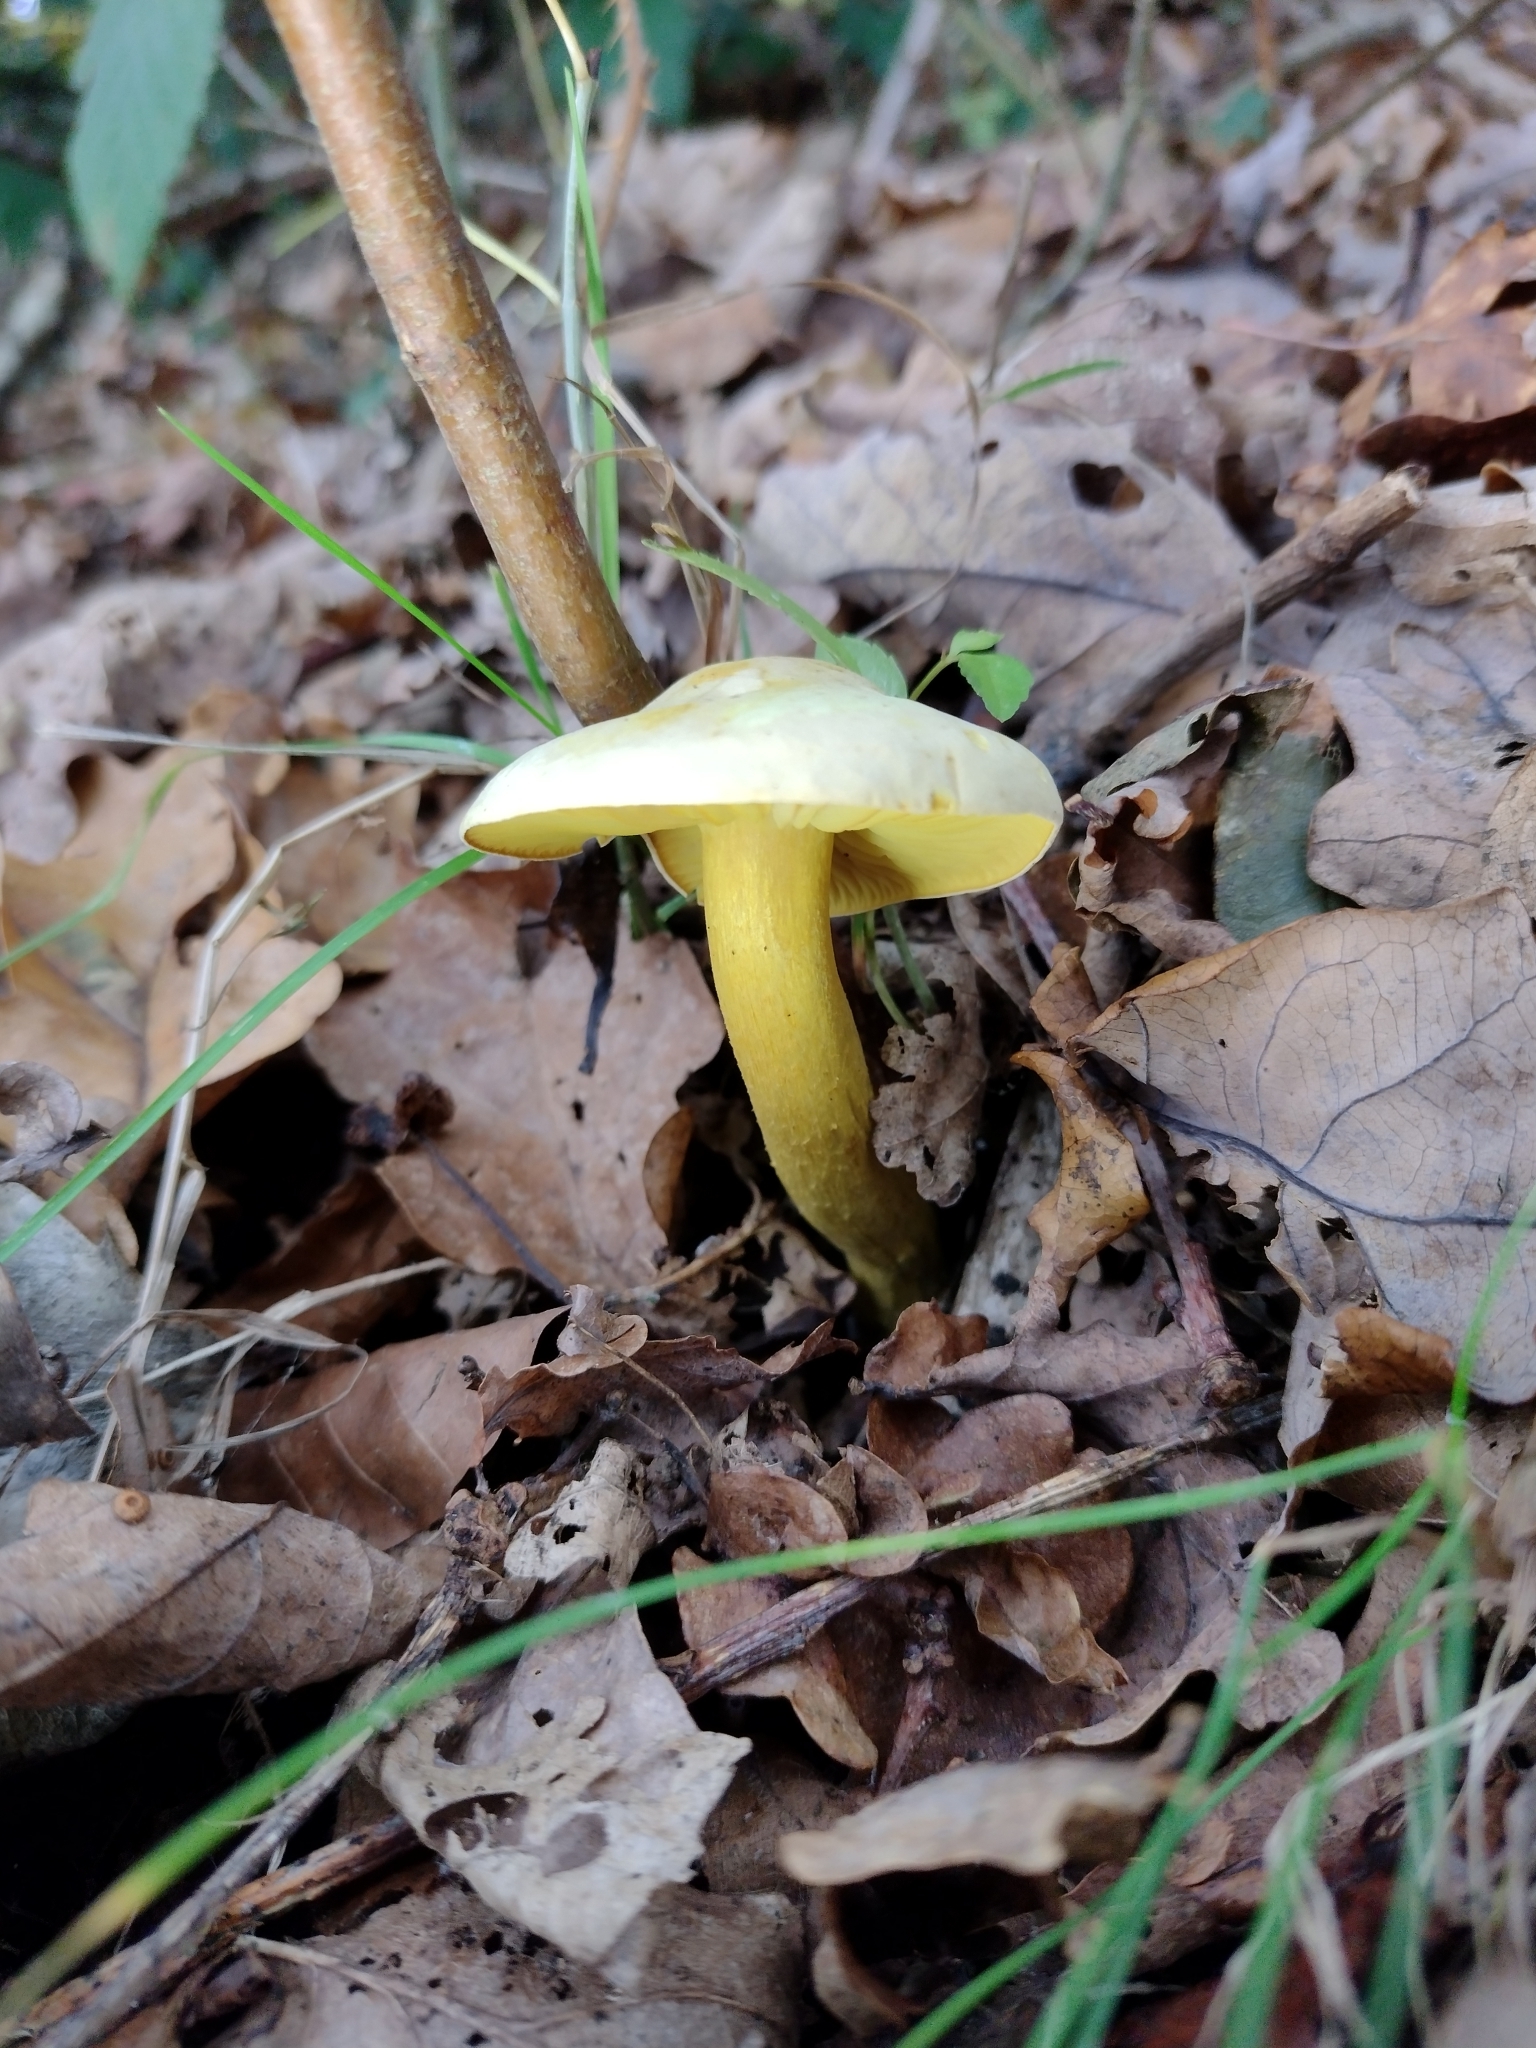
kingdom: Fungi
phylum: Basidiomycota
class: Agaricomycetes
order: Agaricales
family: Tricholomataceae
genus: Tricholoma
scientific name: Tricholoma sulphureum
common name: Stinky knight
